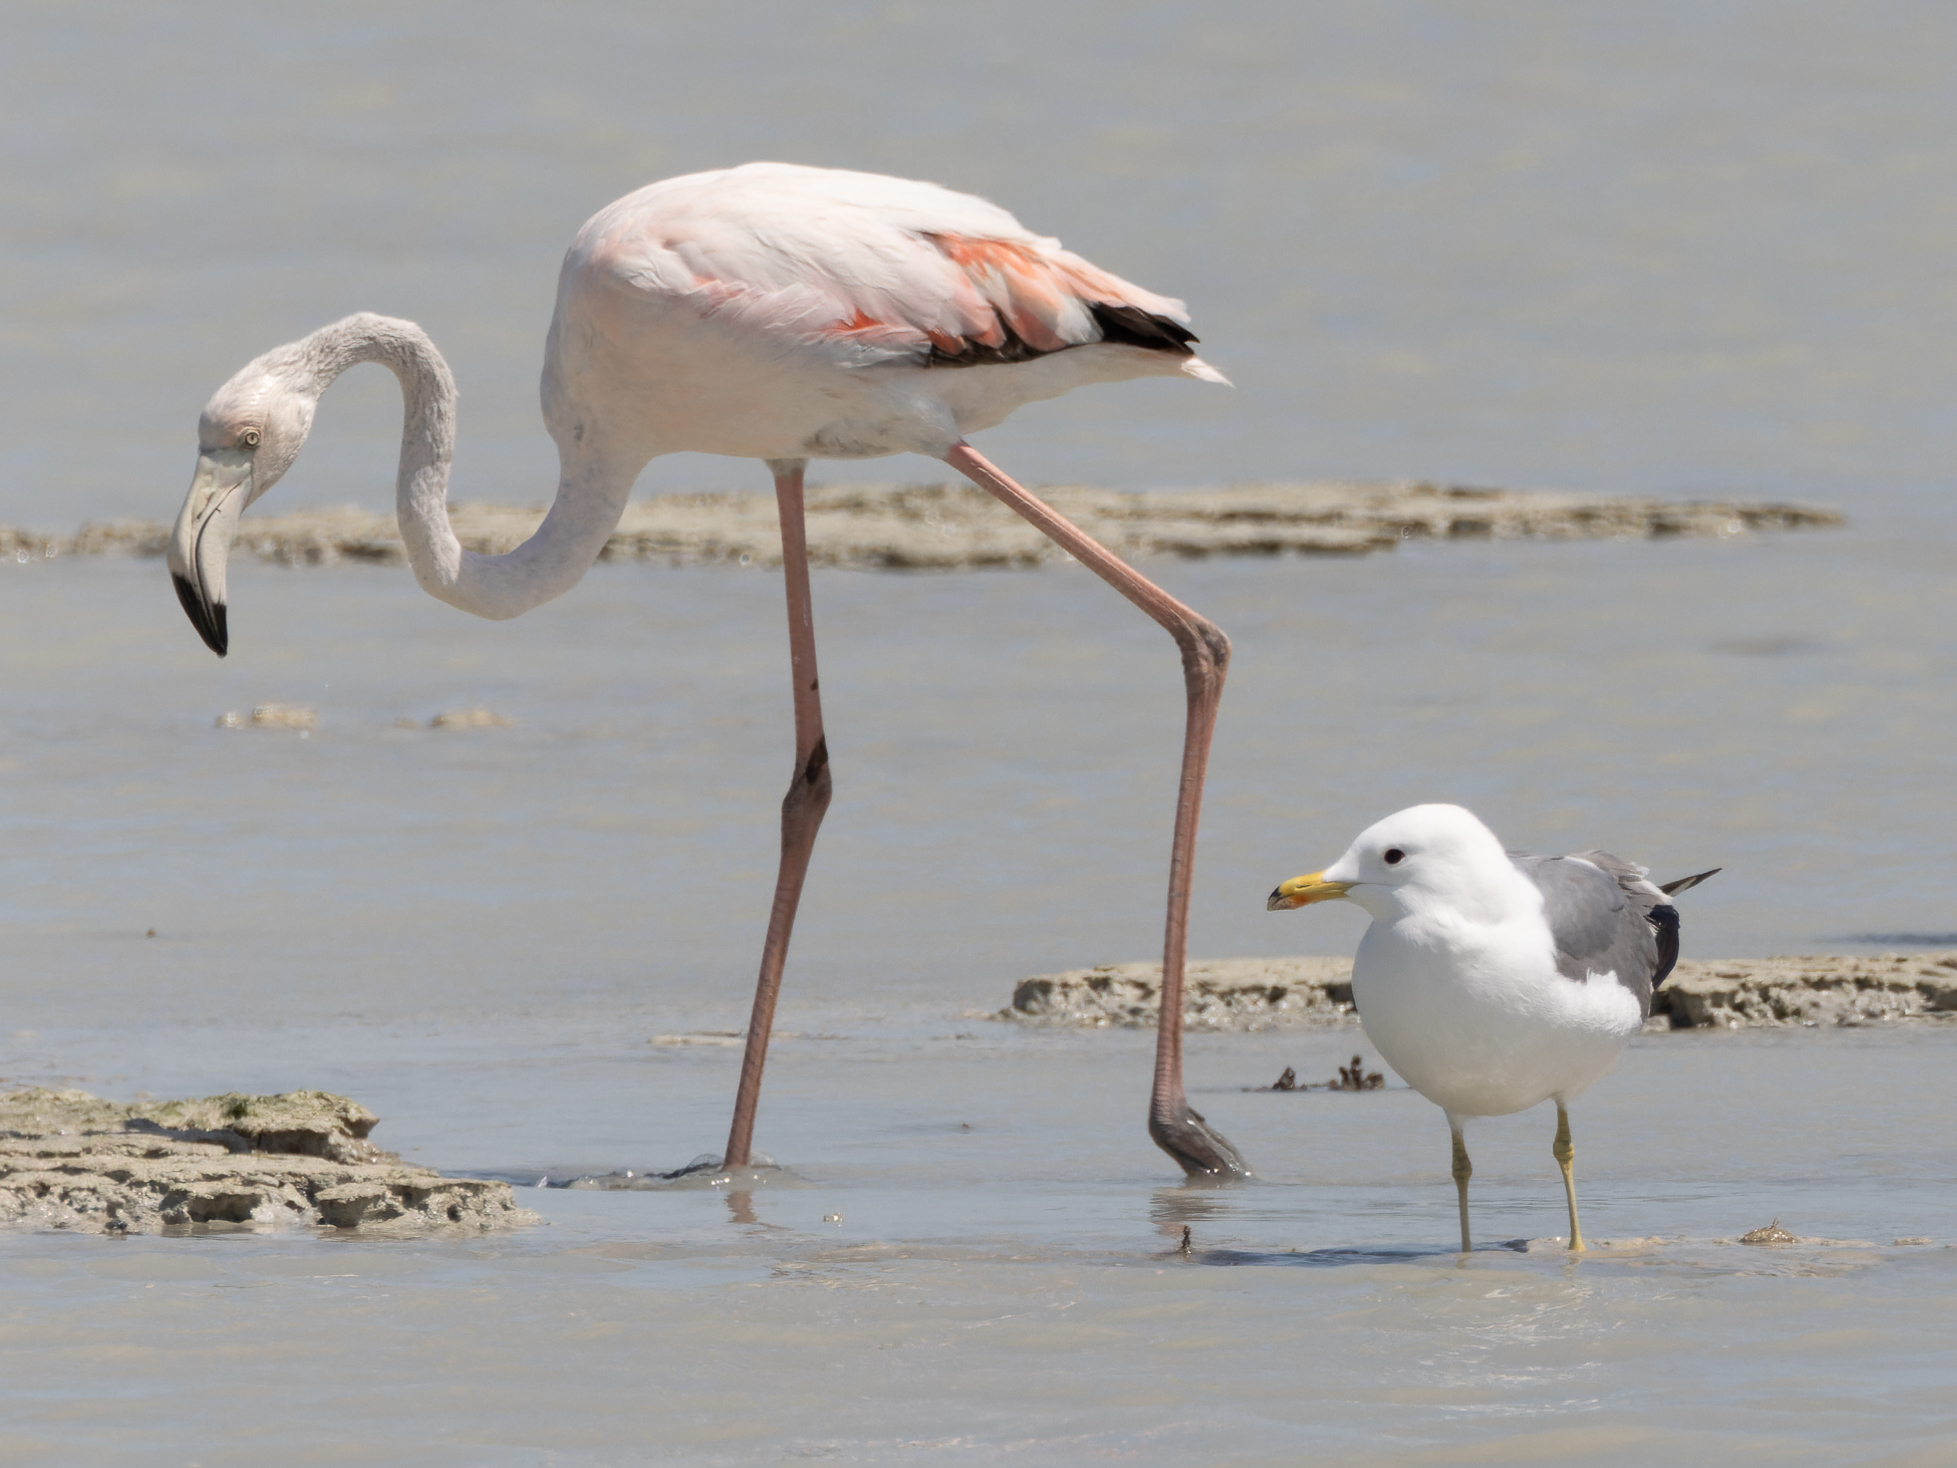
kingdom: Animalia
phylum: Chordata
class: Aves
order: Charadriiformes
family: Laridae
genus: Larus
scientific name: Larus fuscus
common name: Lesser black-backed gull
